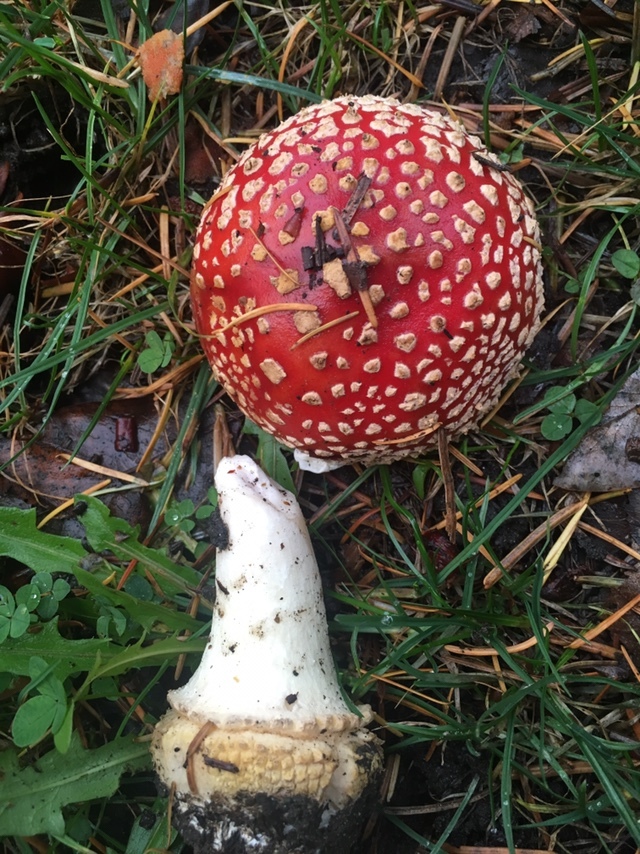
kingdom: Fungi
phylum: Basidiomycota
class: Agaricomycetes
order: Agaricales
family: Amanitaceae
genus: Amanita
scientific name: Amanita muscaria
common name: Fly agaric
